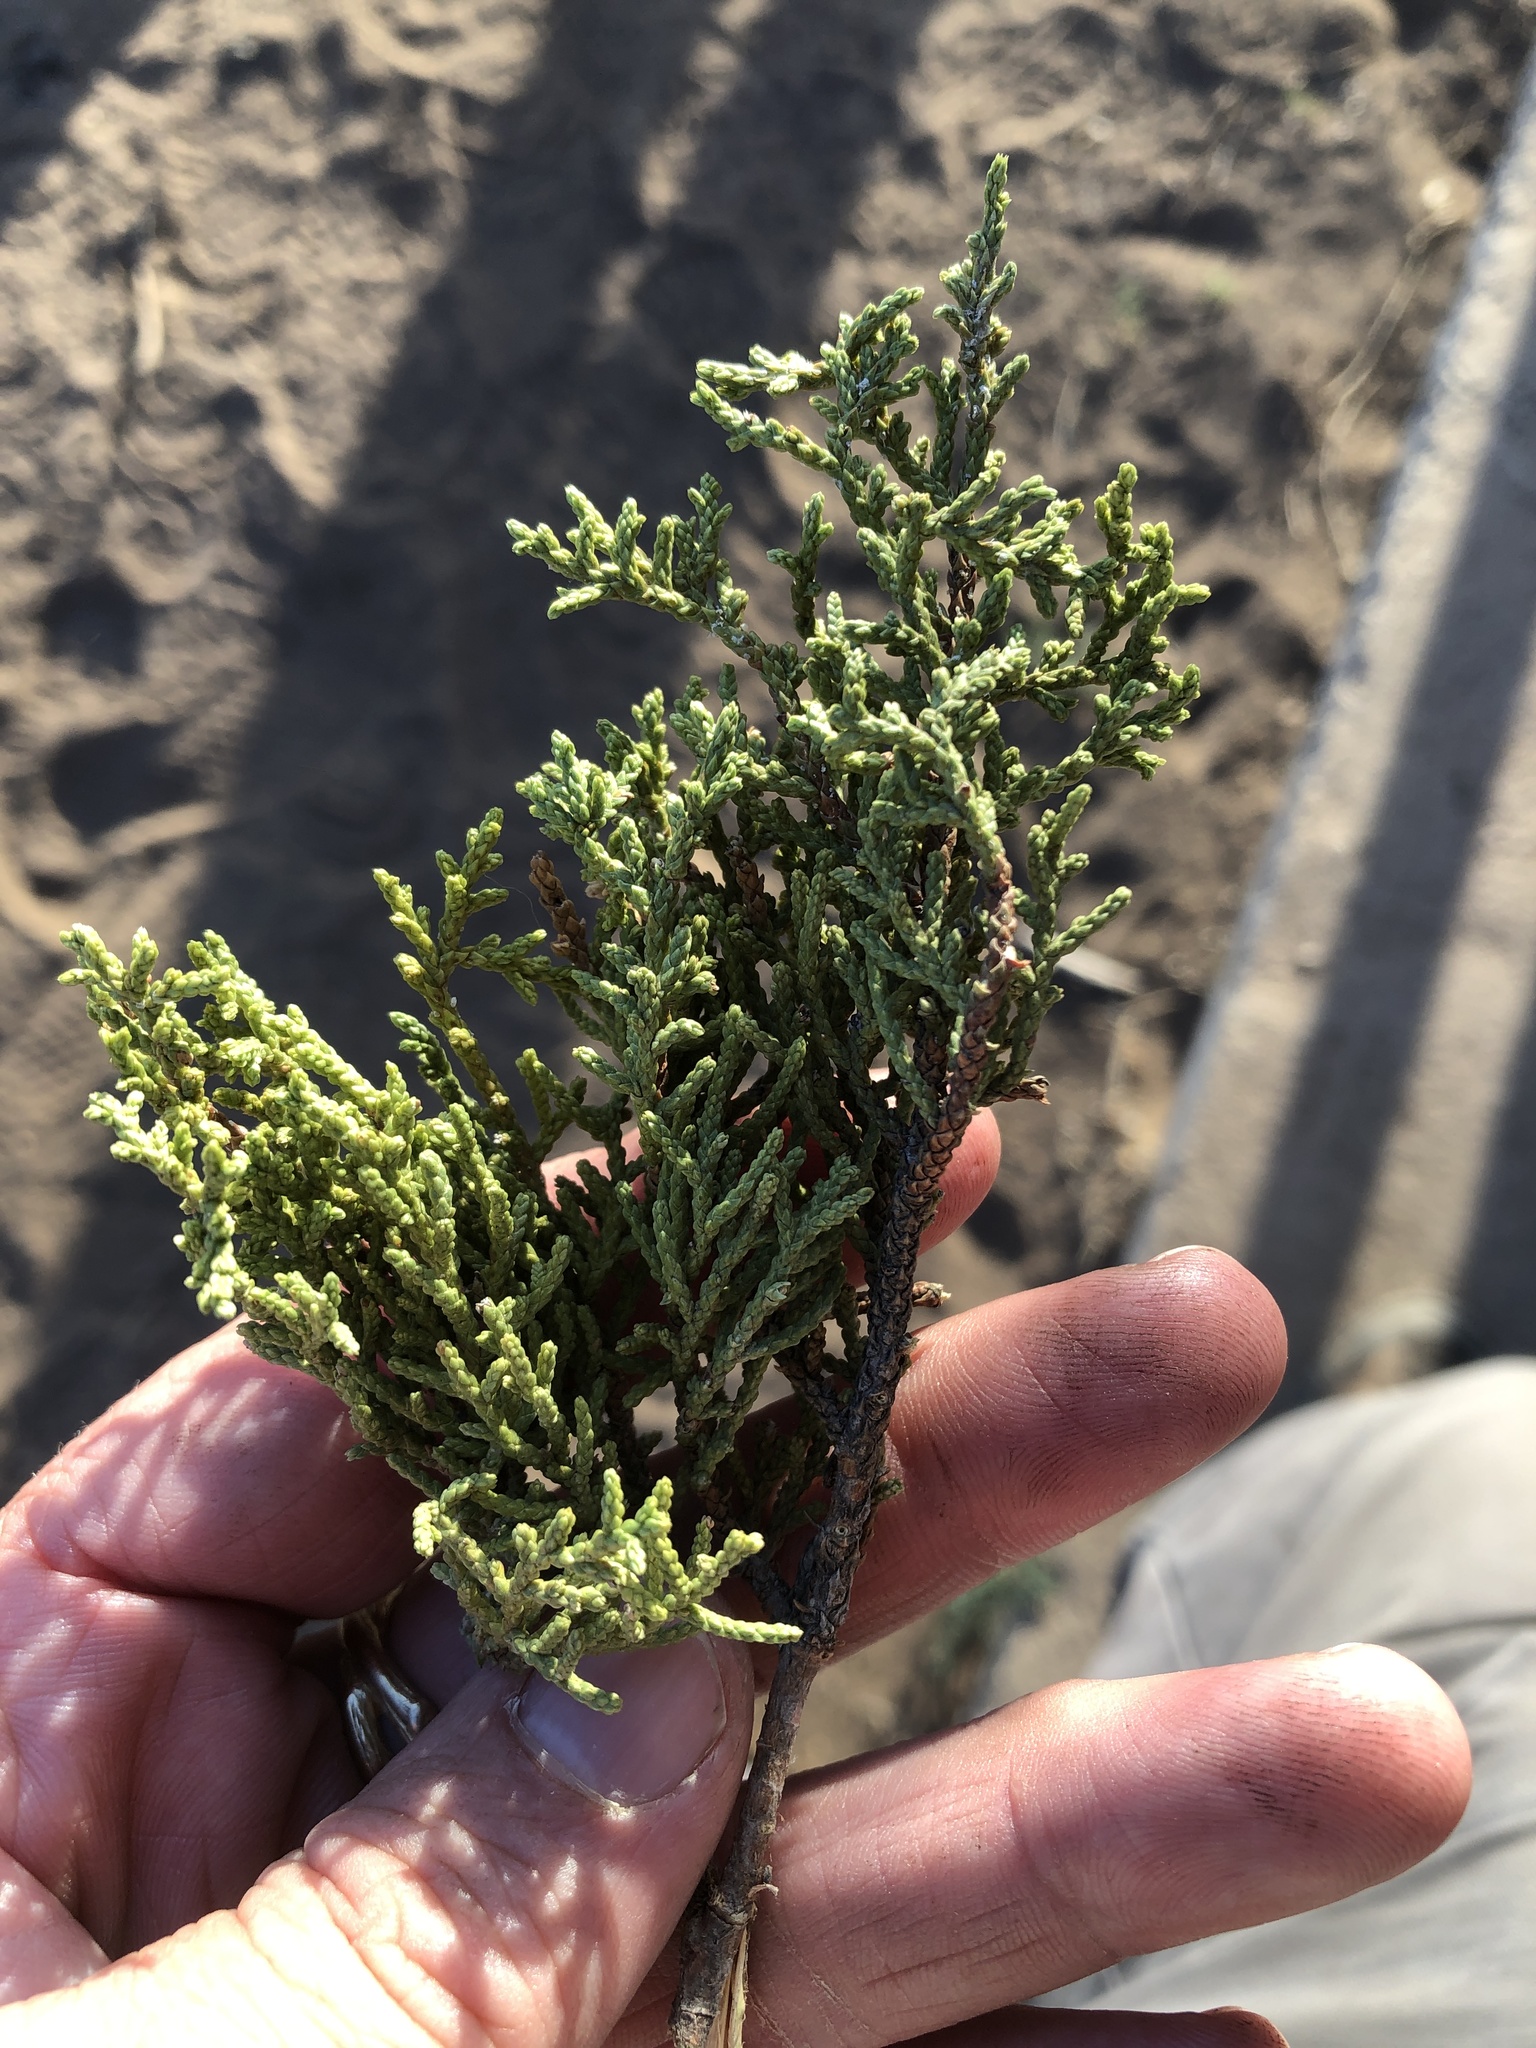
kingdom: Plantae
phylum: Tracheophyta
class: Pinopsida
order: Pinales
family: Cupressaceae
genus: Juniperus
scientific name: Juniperus coahuilensis
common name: Roseberry
